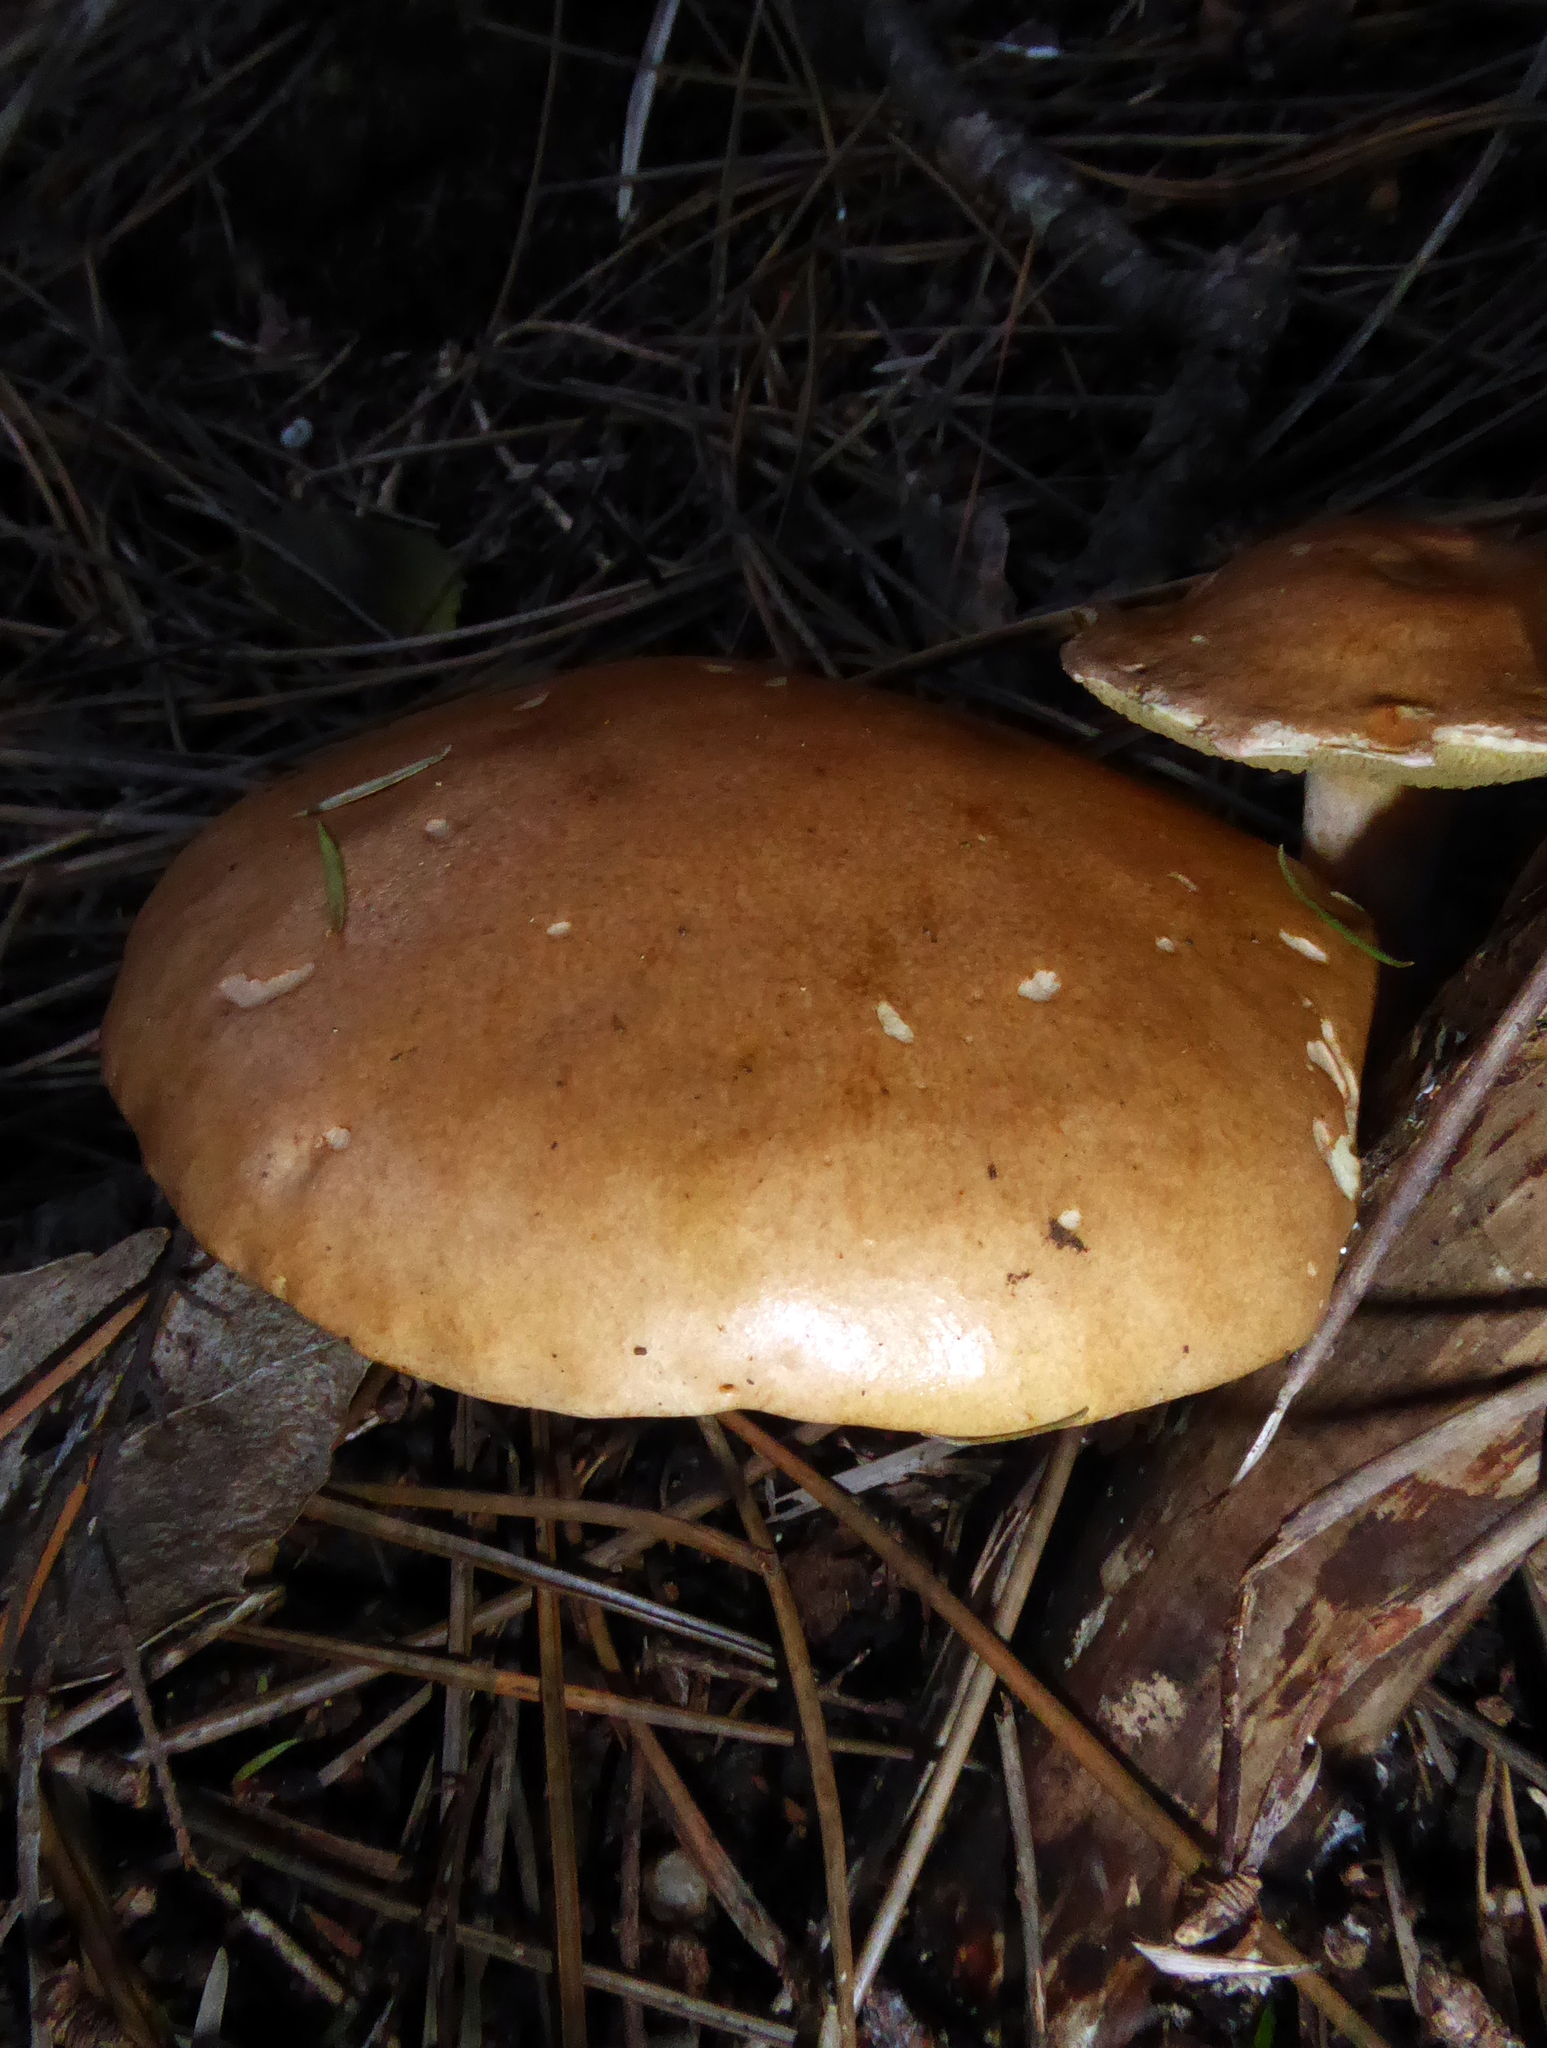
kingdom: Fungi
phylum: Basidiomycota
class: Agaricomycetes
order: Boletales
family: Suillaceae
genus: Suillus
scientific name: Suillus bovinus
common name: Bovine bolete
